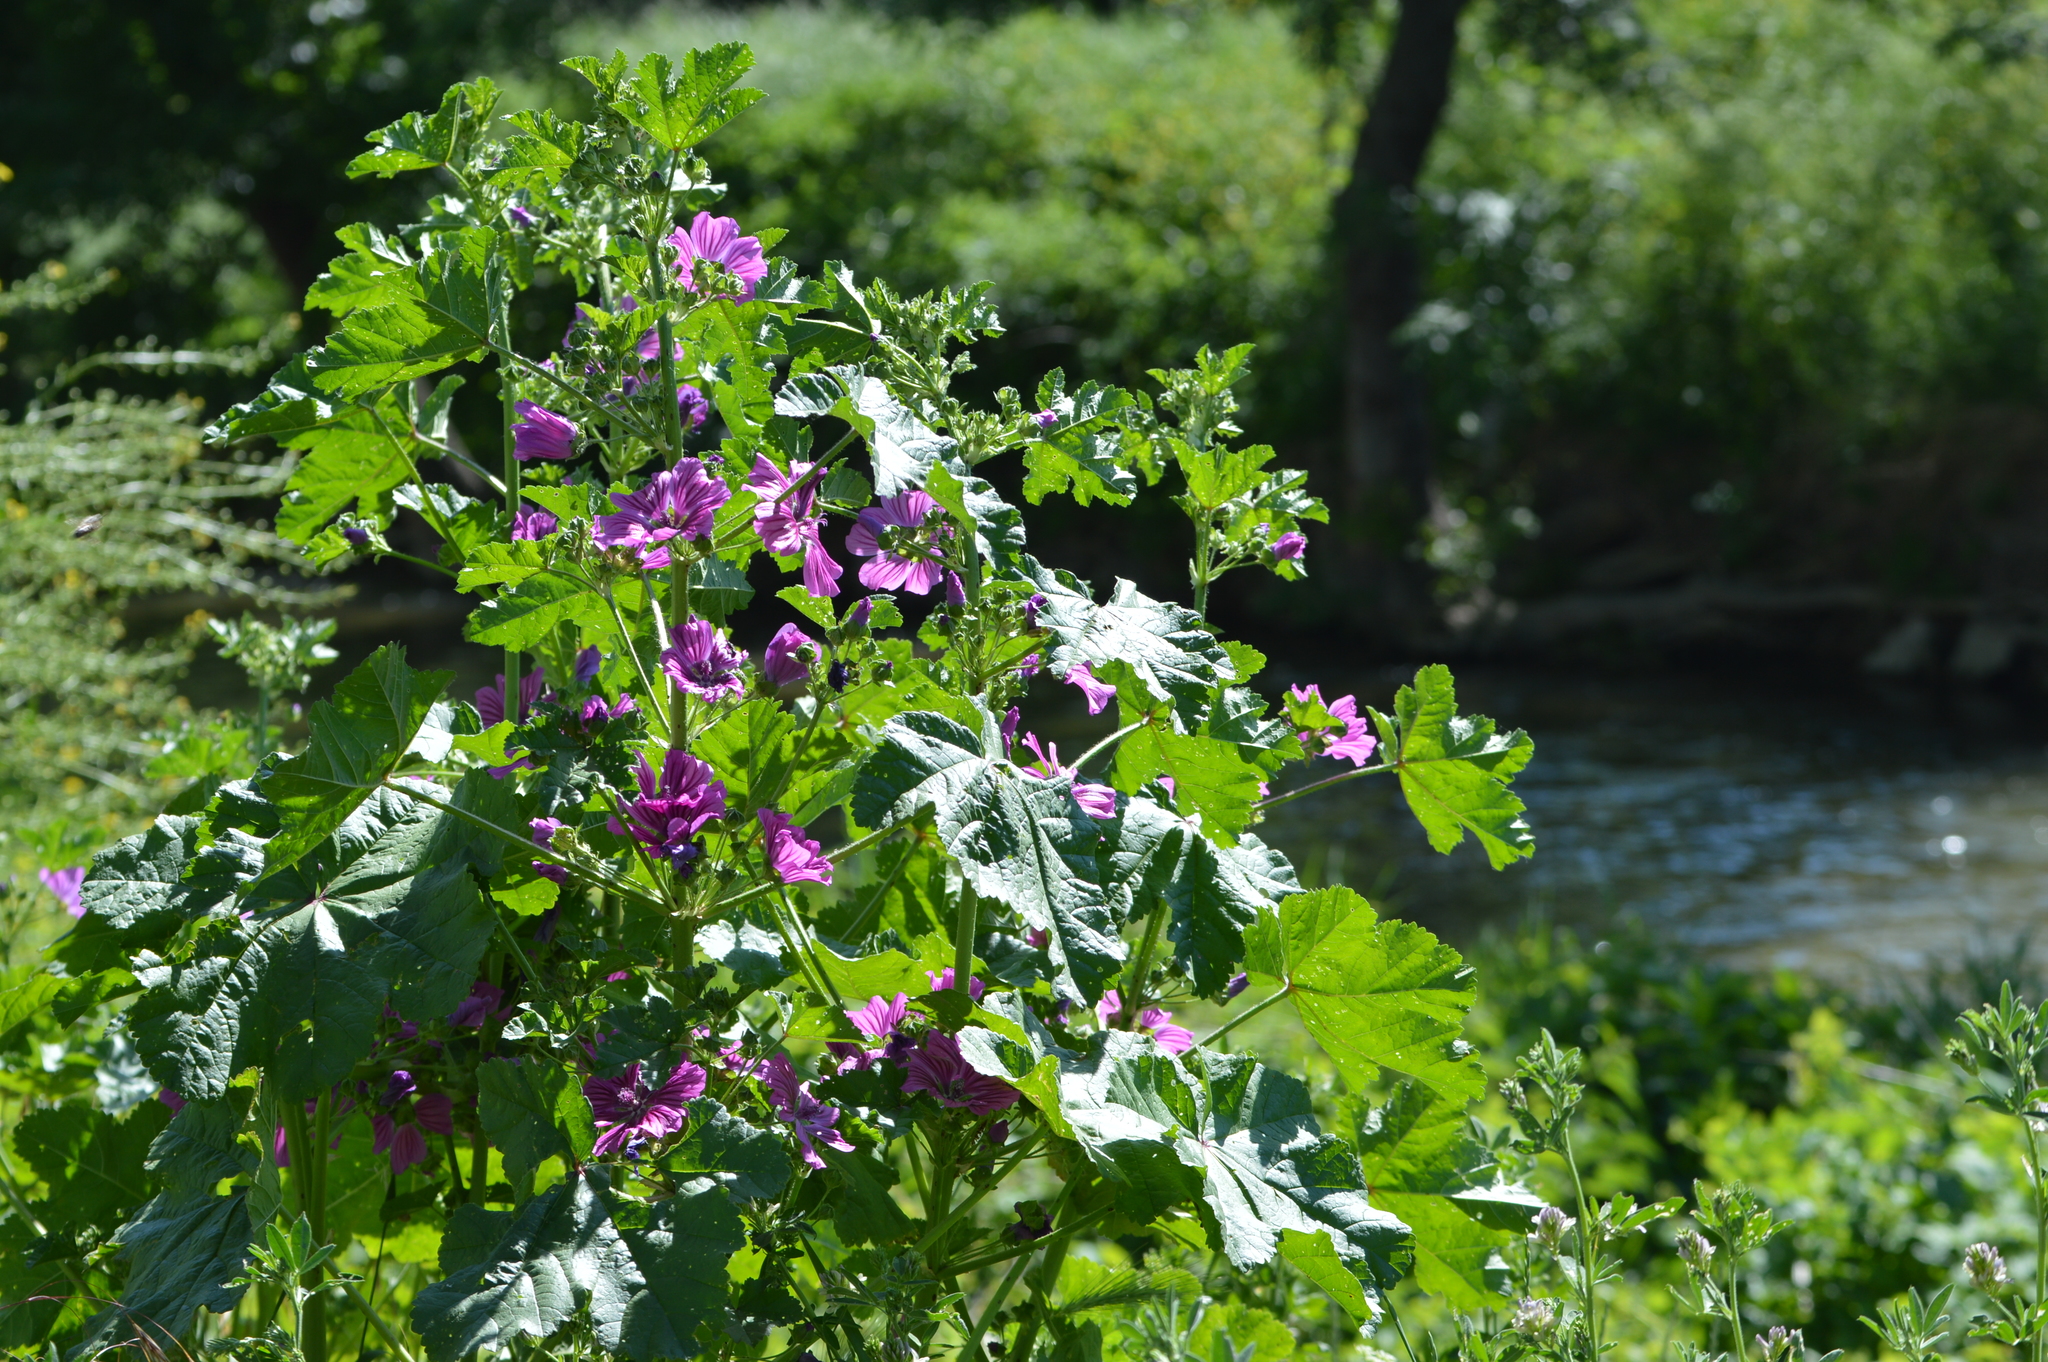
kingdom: Plantae
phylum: Tracheophyta
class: Magnoliopsida
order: Malvales
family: Malvaceae
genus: Malva
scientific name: Malva sylvestris
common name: Common mallow
